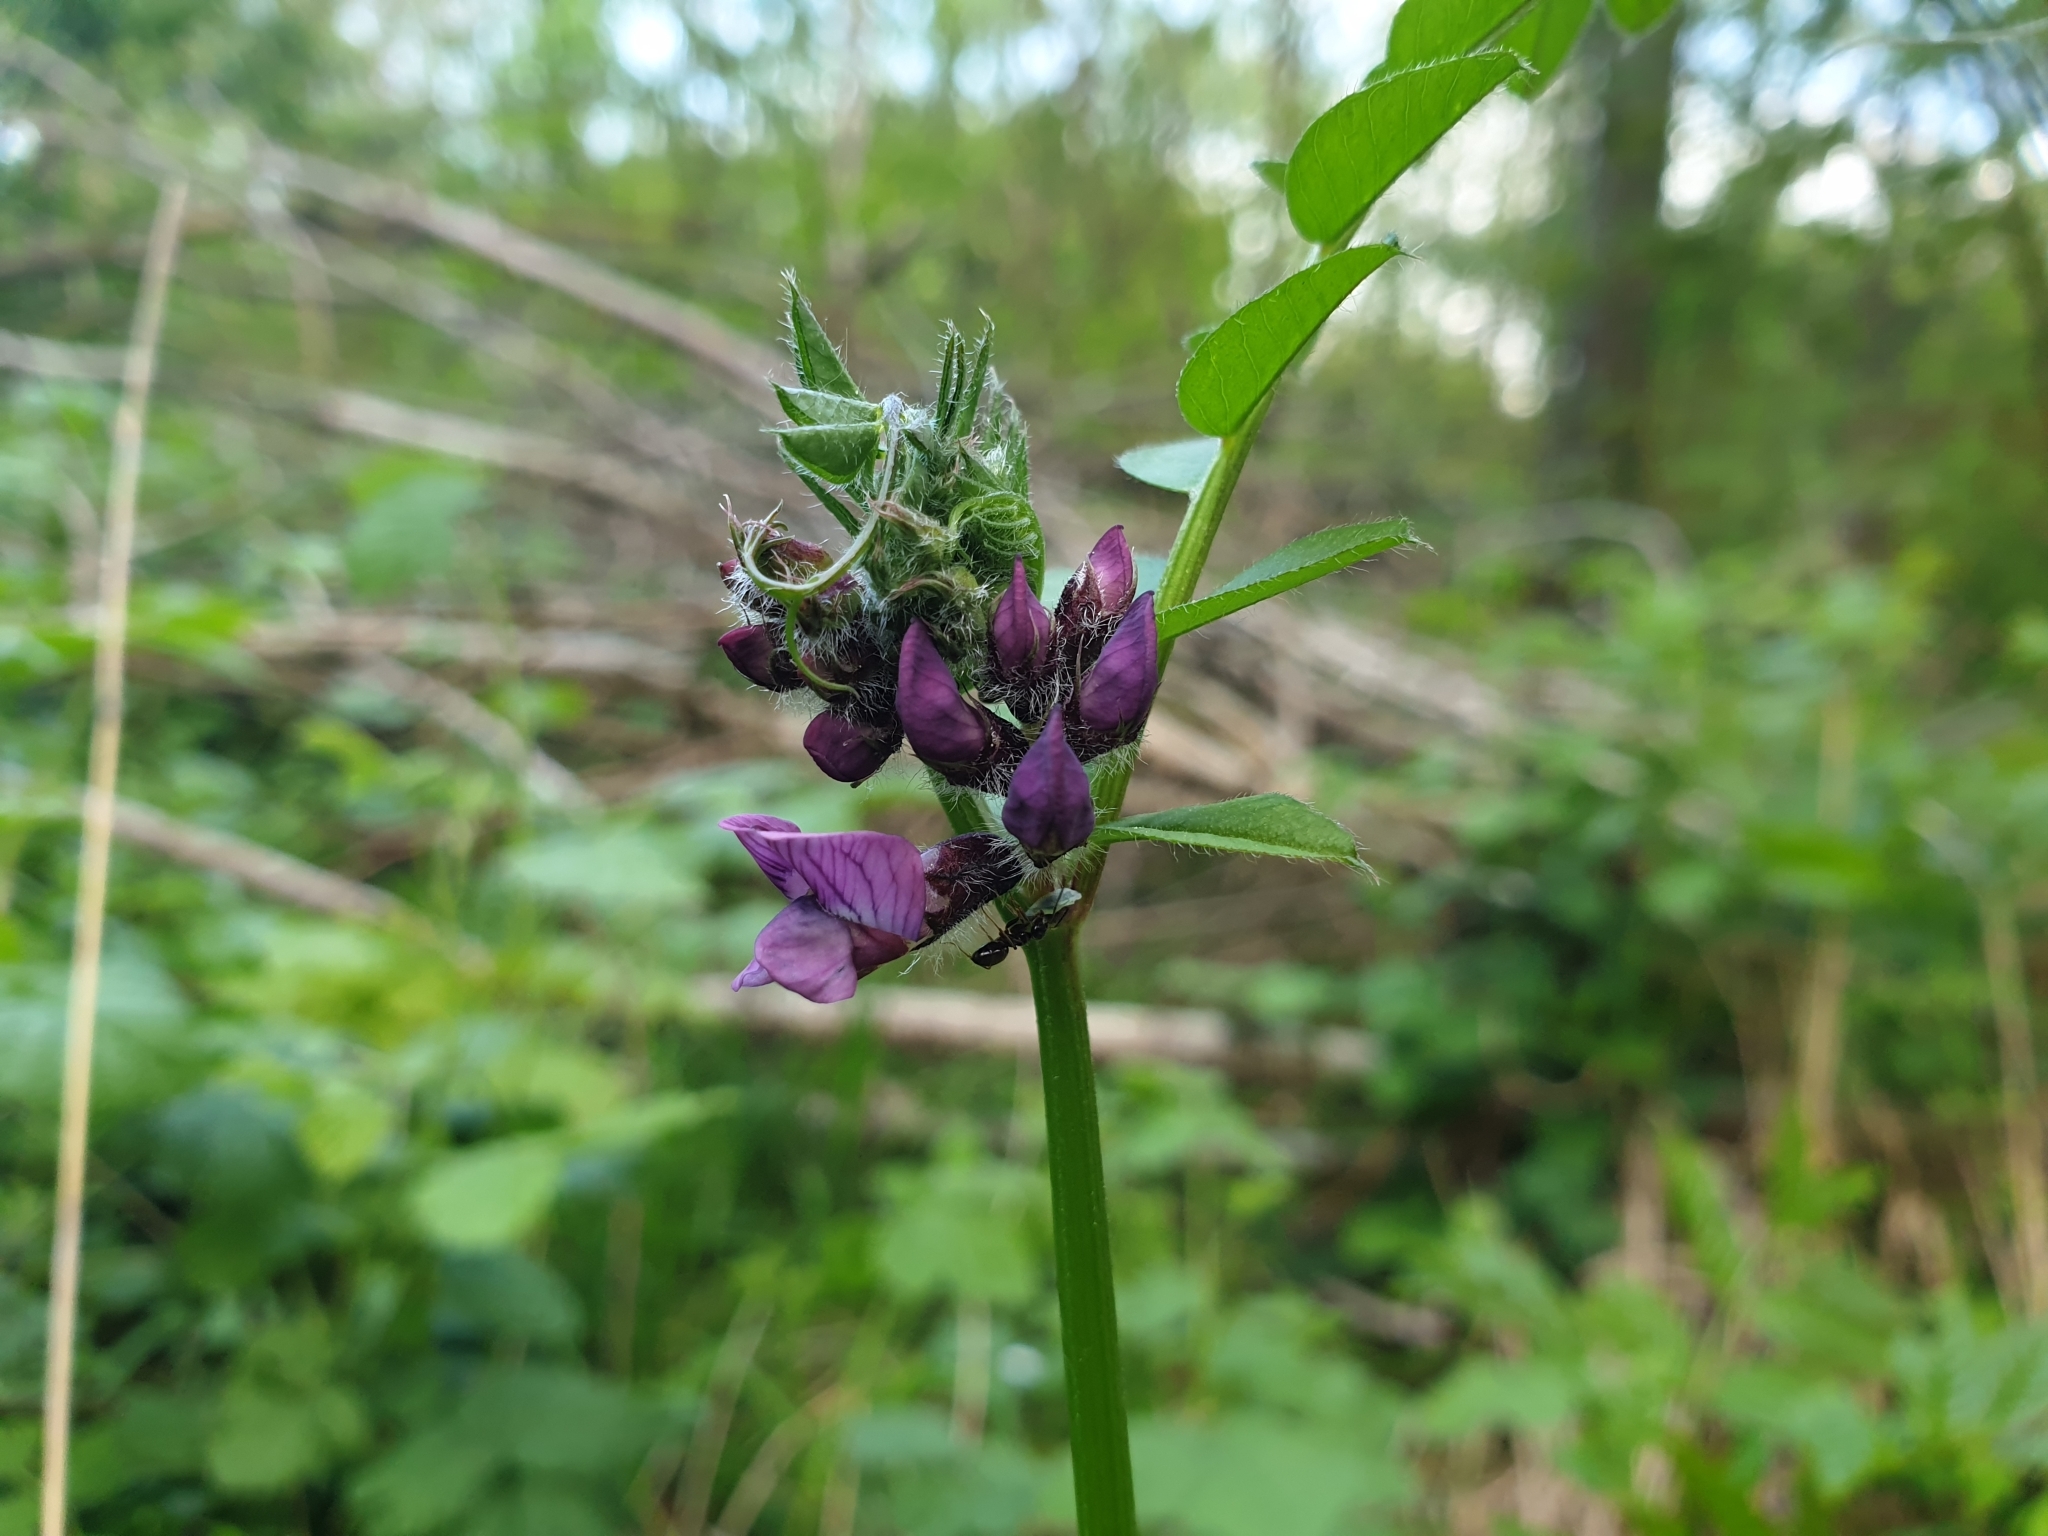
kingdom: Plantae
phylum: Tracheophyta
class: Magnoliopsida
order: Fabales
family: Fabaceae
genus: Vicia
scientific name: Vicia sepium
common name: Bush vetch
